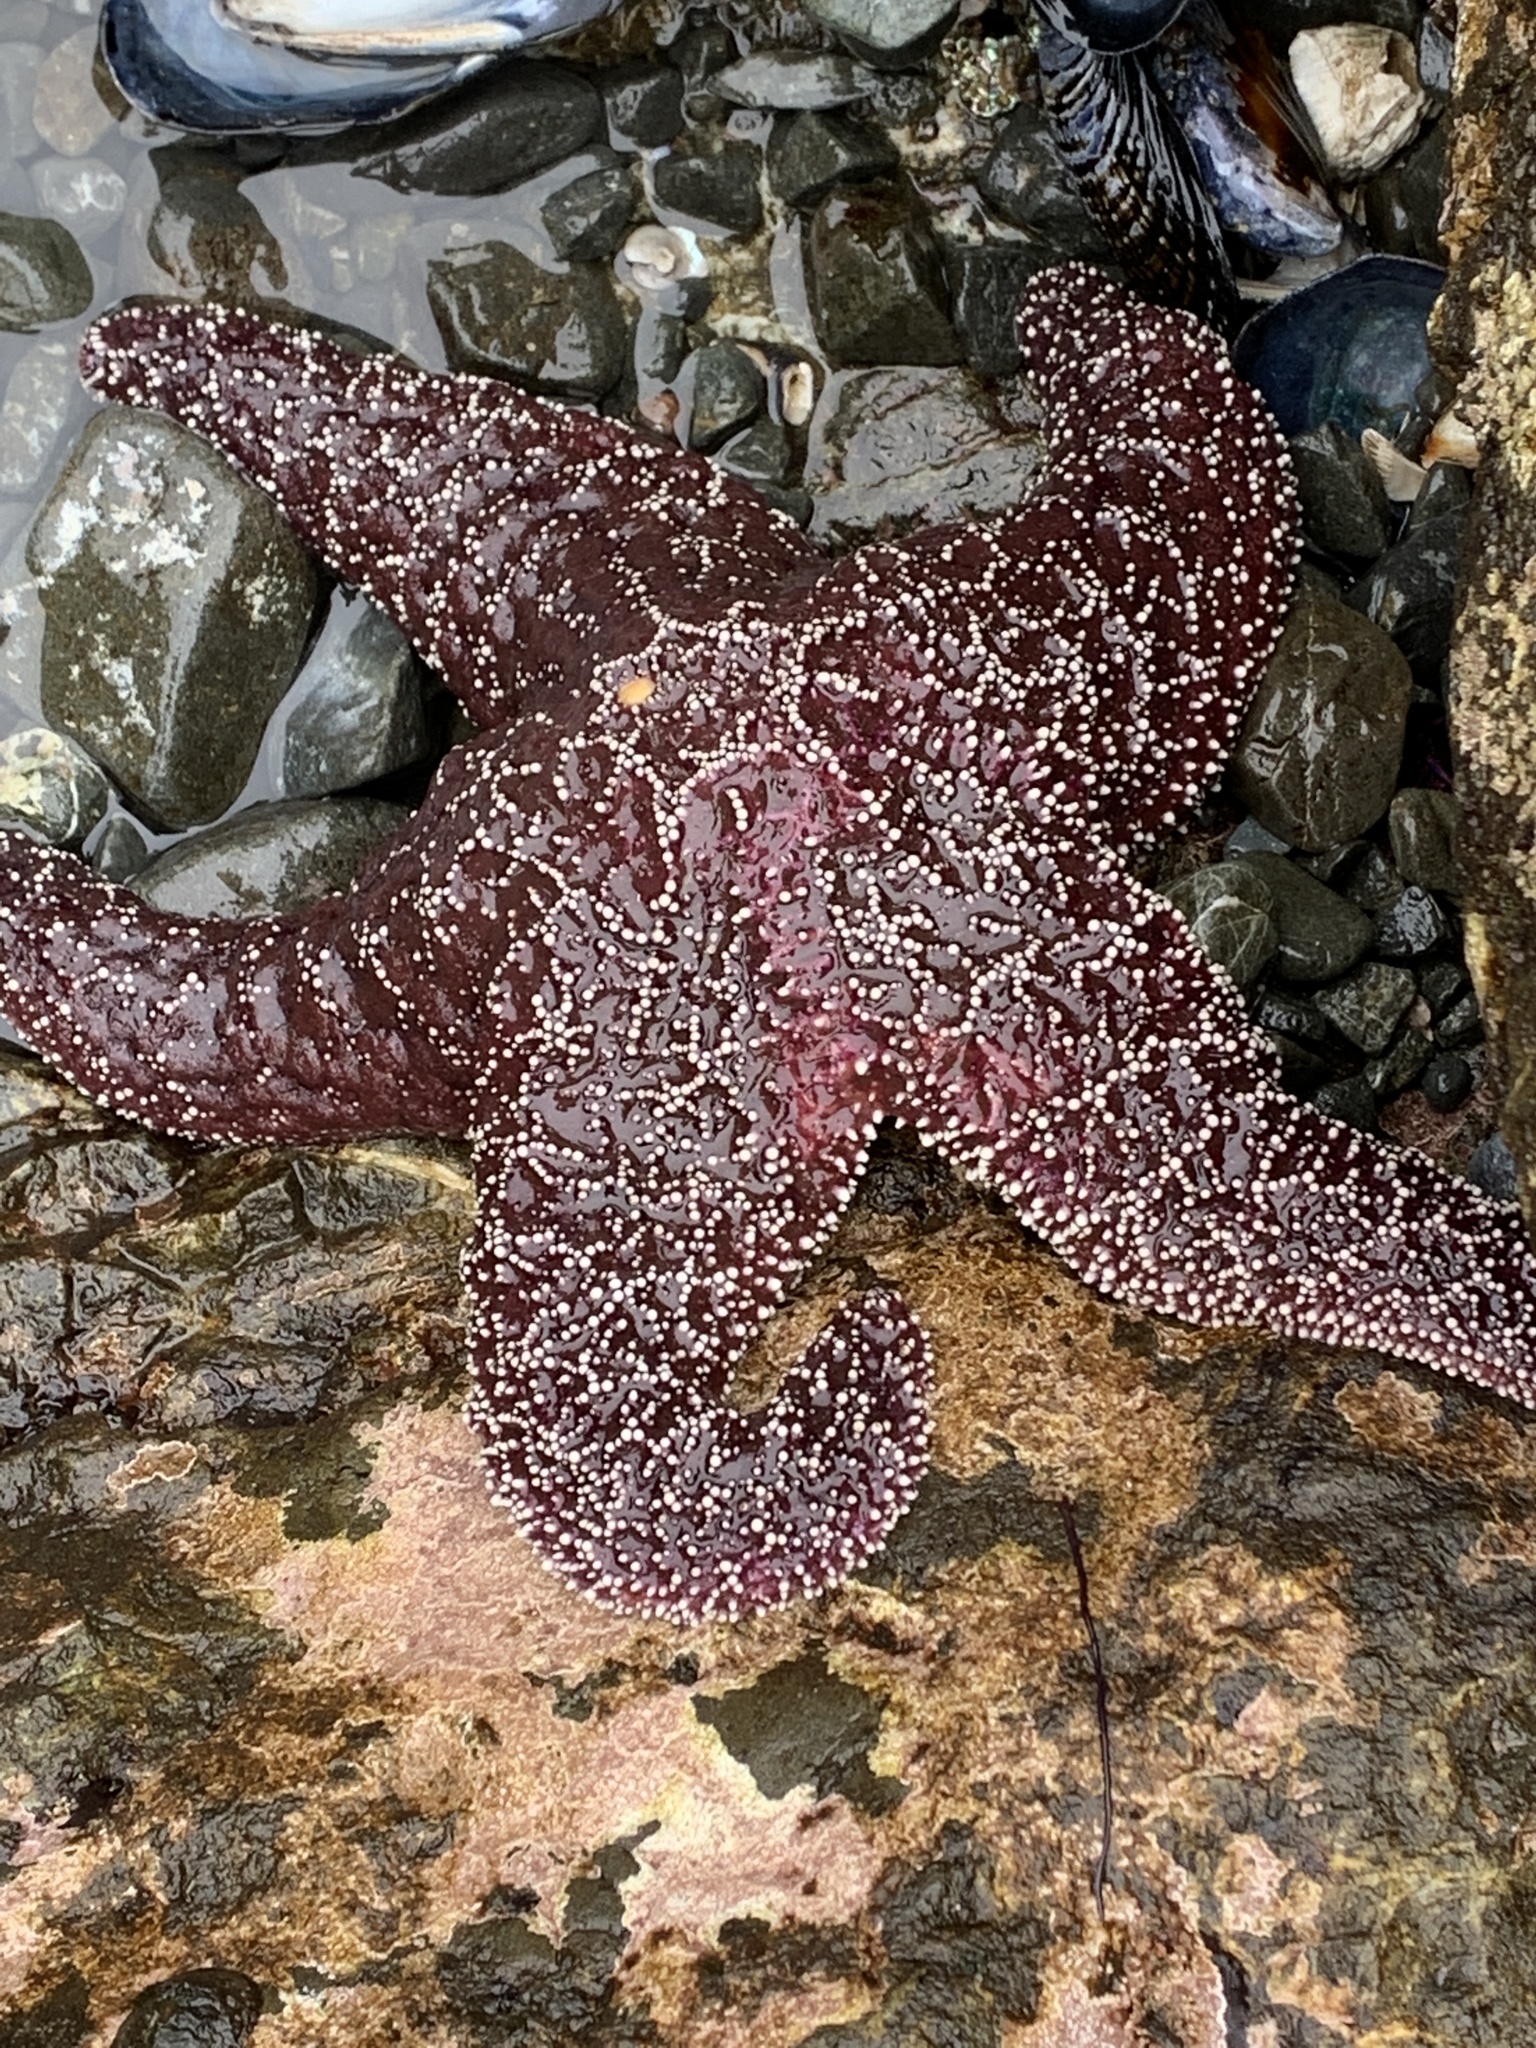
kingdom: Animalia
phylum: Echinodermata
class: Asteroidea
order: Forcipulatida
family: Asteriidae
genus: Pisaster
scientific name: Pisaster ochraceus
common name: Ochre stars
